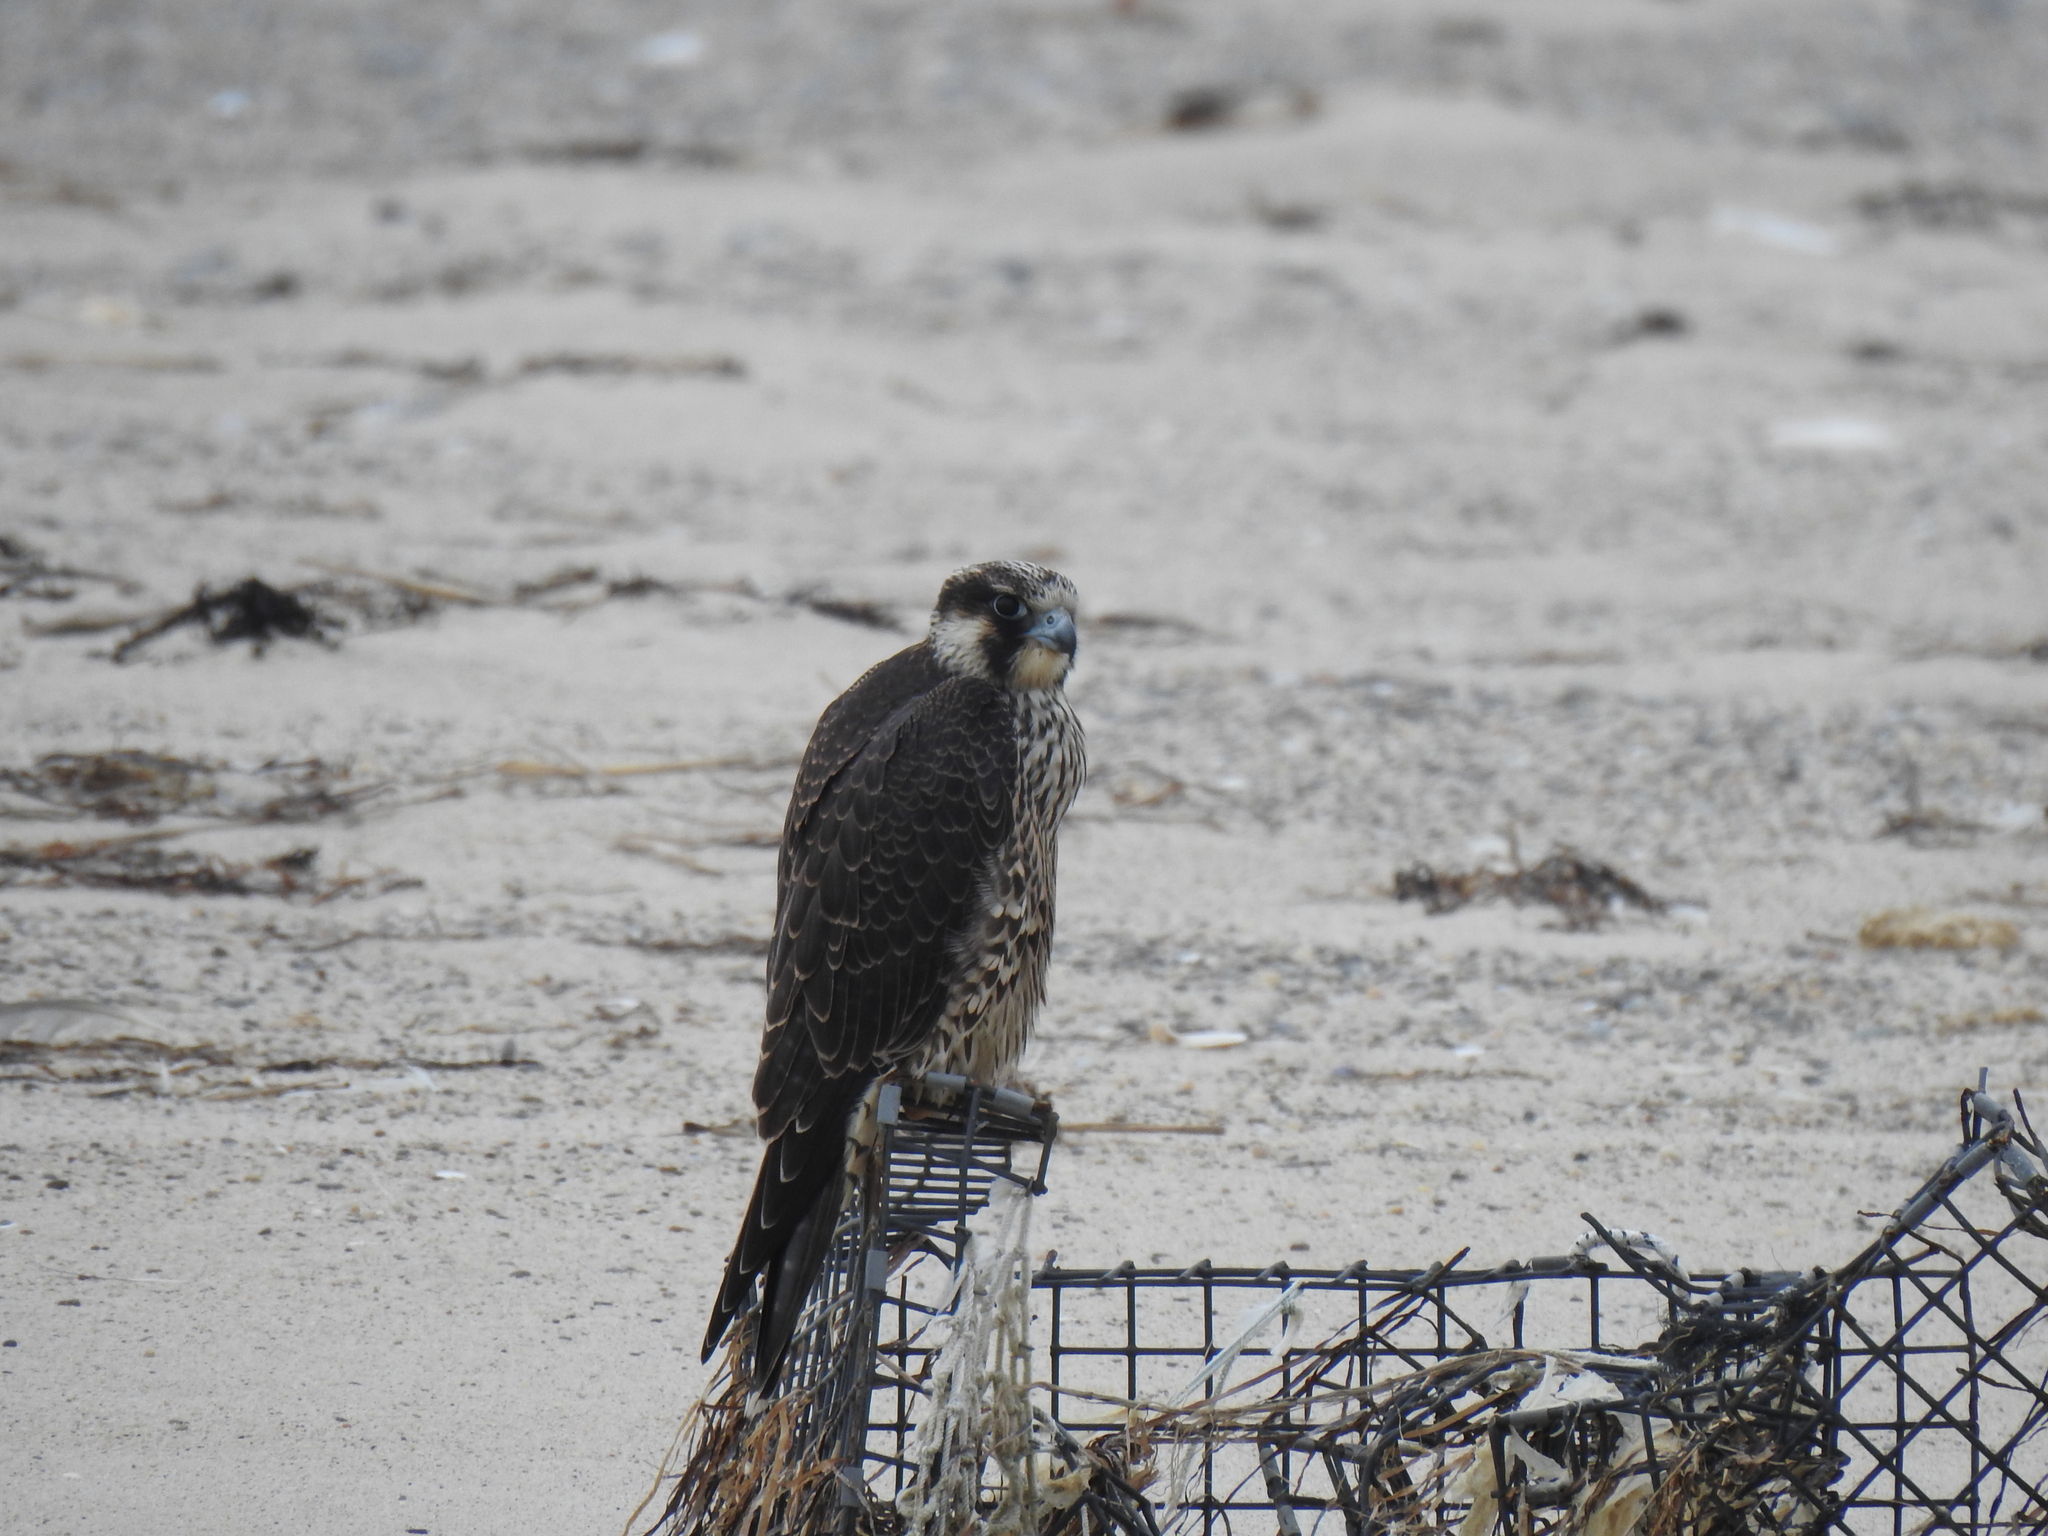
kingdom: Animalia
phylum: Chordata
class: Aves
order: Falconiformes
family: Falconidae
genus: Falco
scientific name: Falco peregrinus
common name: Peregrine falcon
